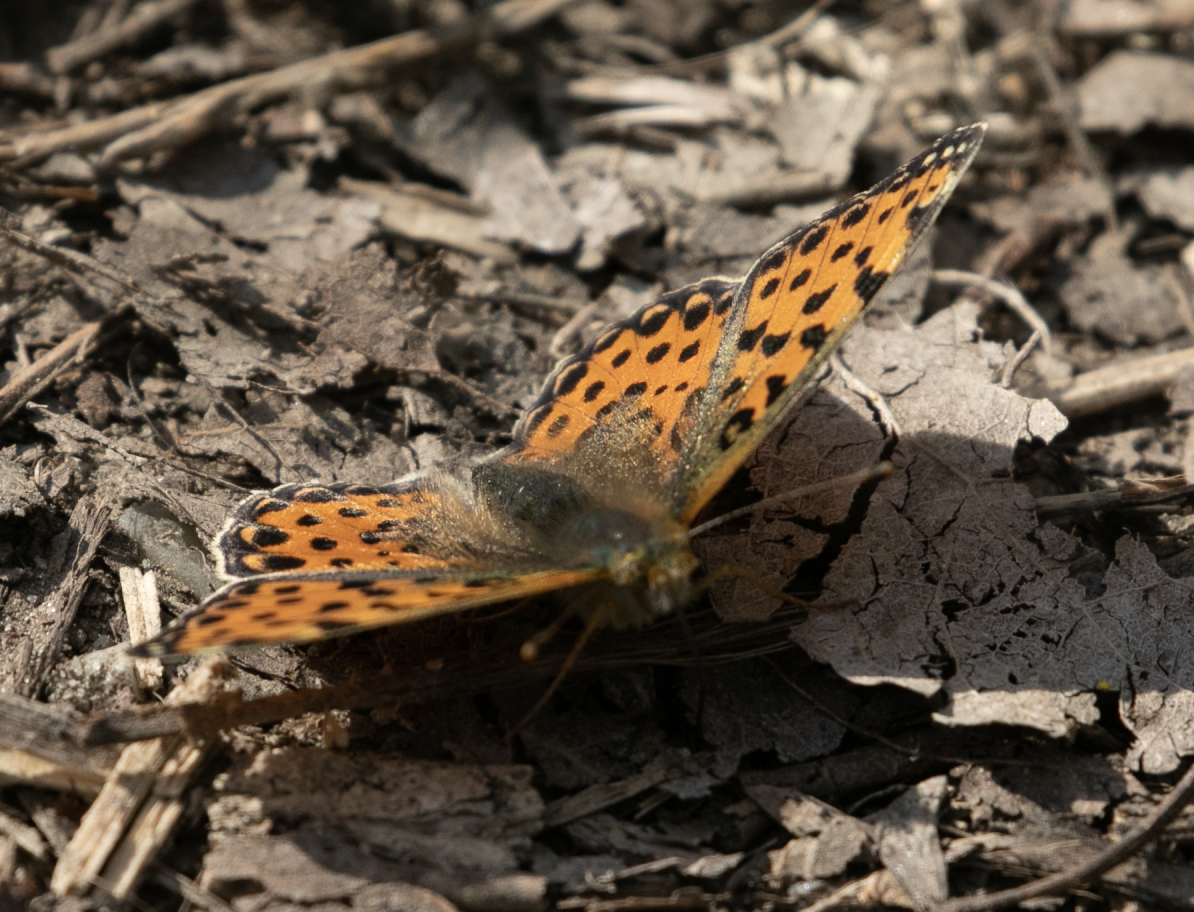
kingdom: Animalia
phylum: Arthropoda
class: Insecta
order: Lepidoptera
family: Nymphalidae
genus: Issoria
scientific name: Issoria lathonia
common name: Queen of spain fritillary
